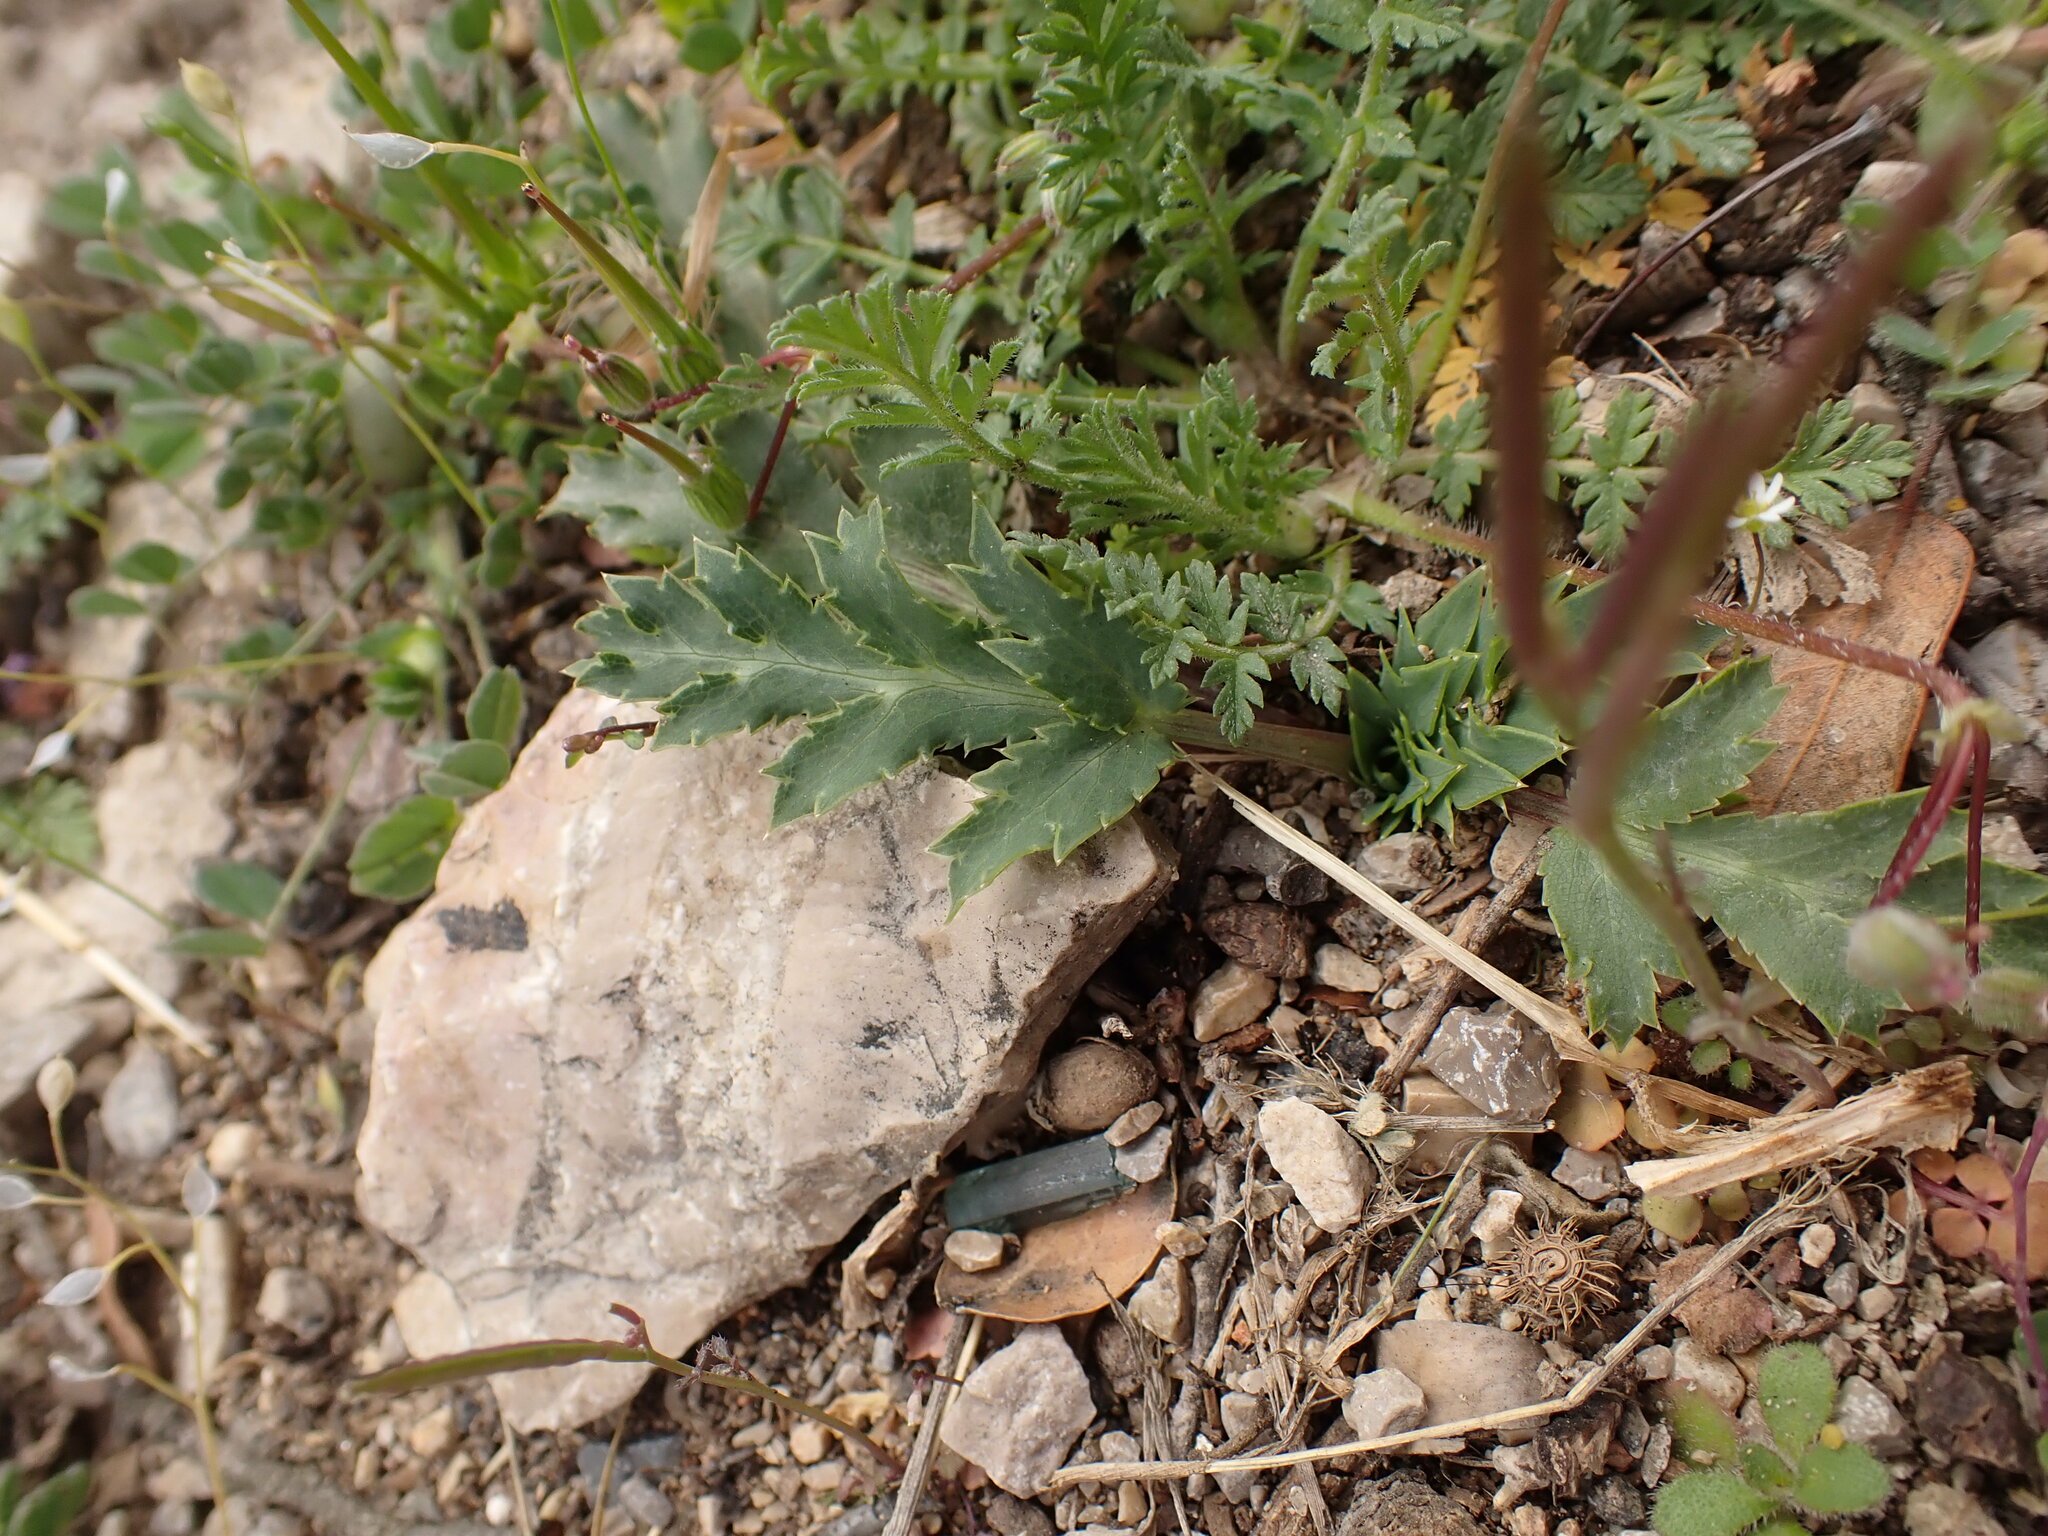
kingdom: Plantae
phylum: Tracheophyta
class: Magnoliopsida
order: Apiales
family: Apiaceae
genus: Eryngium
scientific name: Eryngium campestre
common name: Field eryngo
